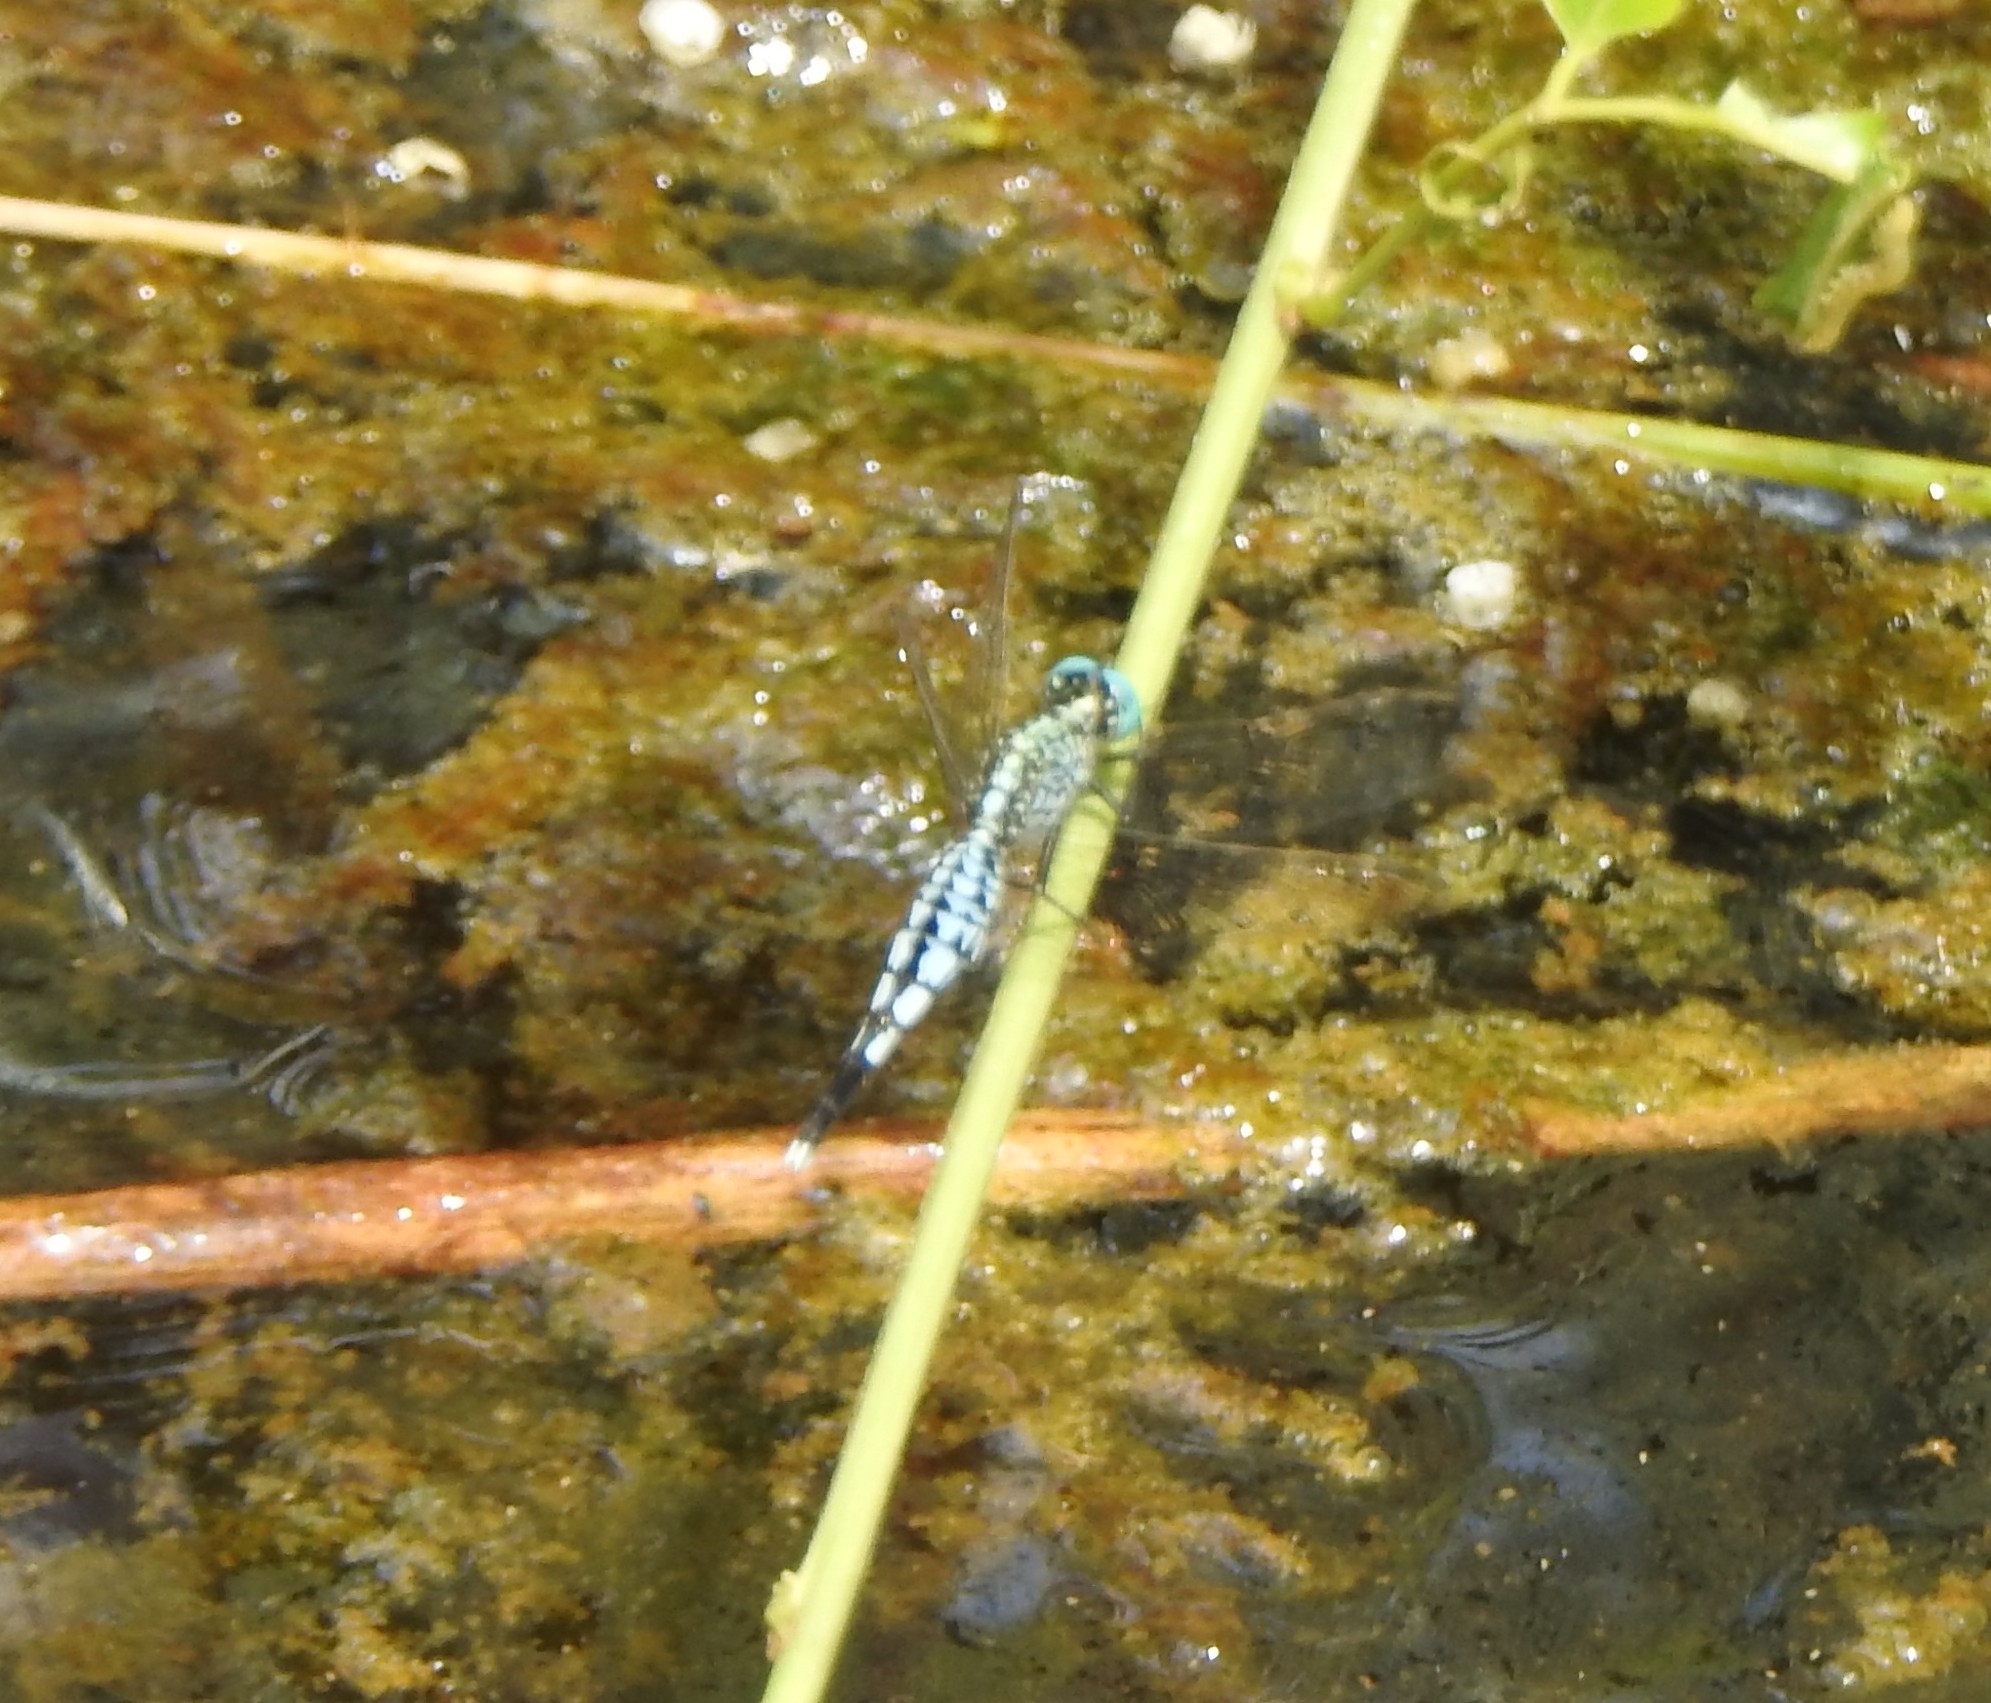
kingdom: Animalia
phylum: Arthropoda
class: Insecta
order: Odonata
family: Libellulidae
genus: Acisoma
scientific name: Acisoma panorpoides
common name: Asian pintail
